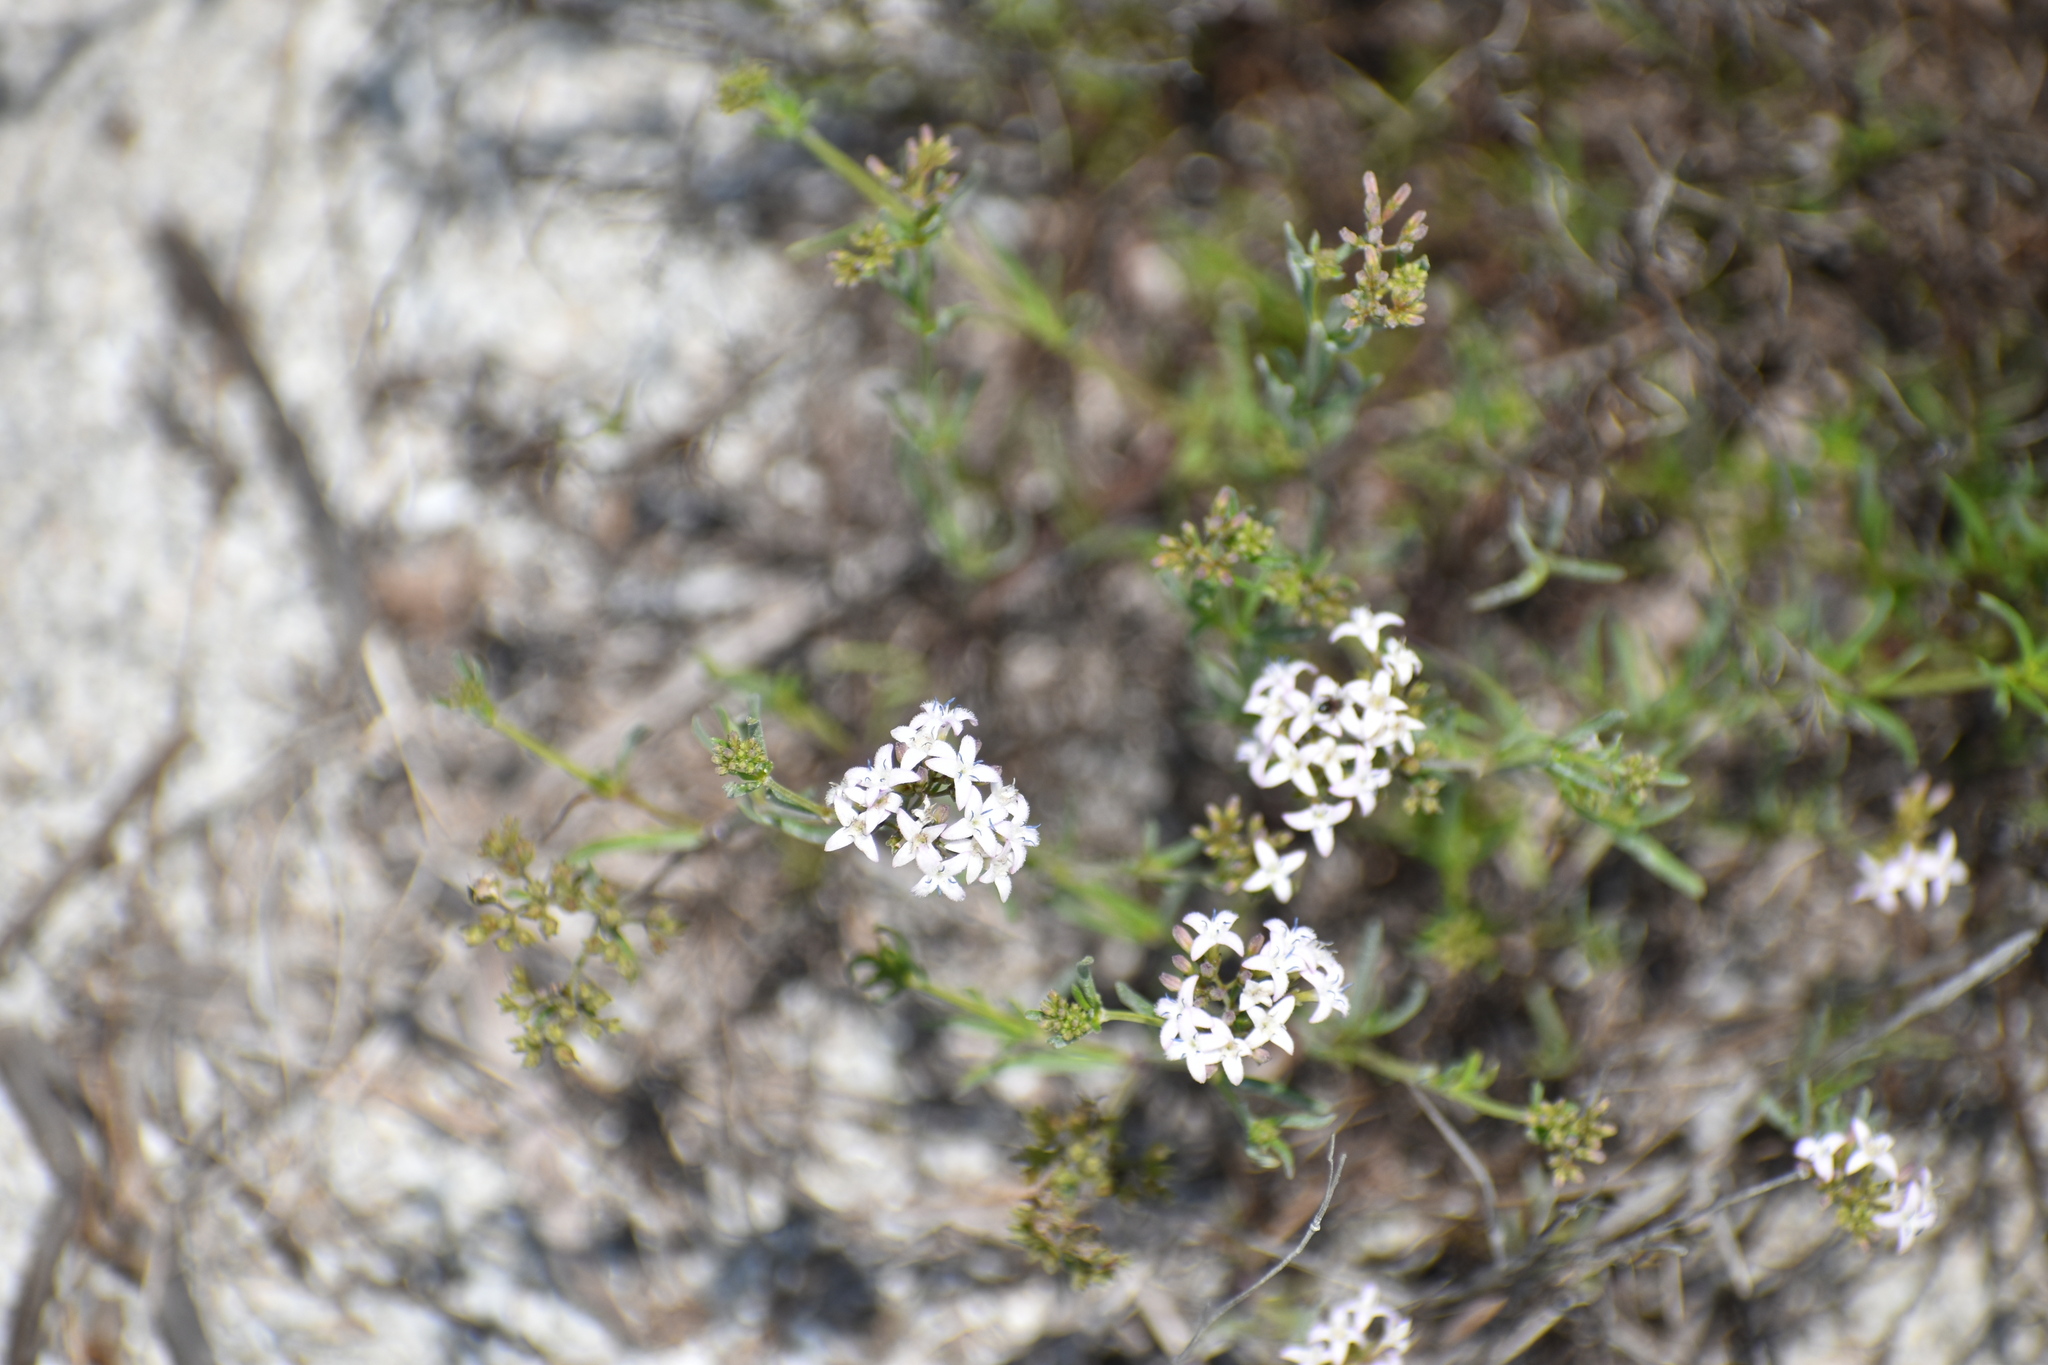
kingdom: Plantae
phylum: Tracheophyta
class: Magnoliopsida
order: Gentianales
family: Rubiaceae
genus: Stenaria
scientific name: Stenaria nigricans
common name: Diamondflowers
